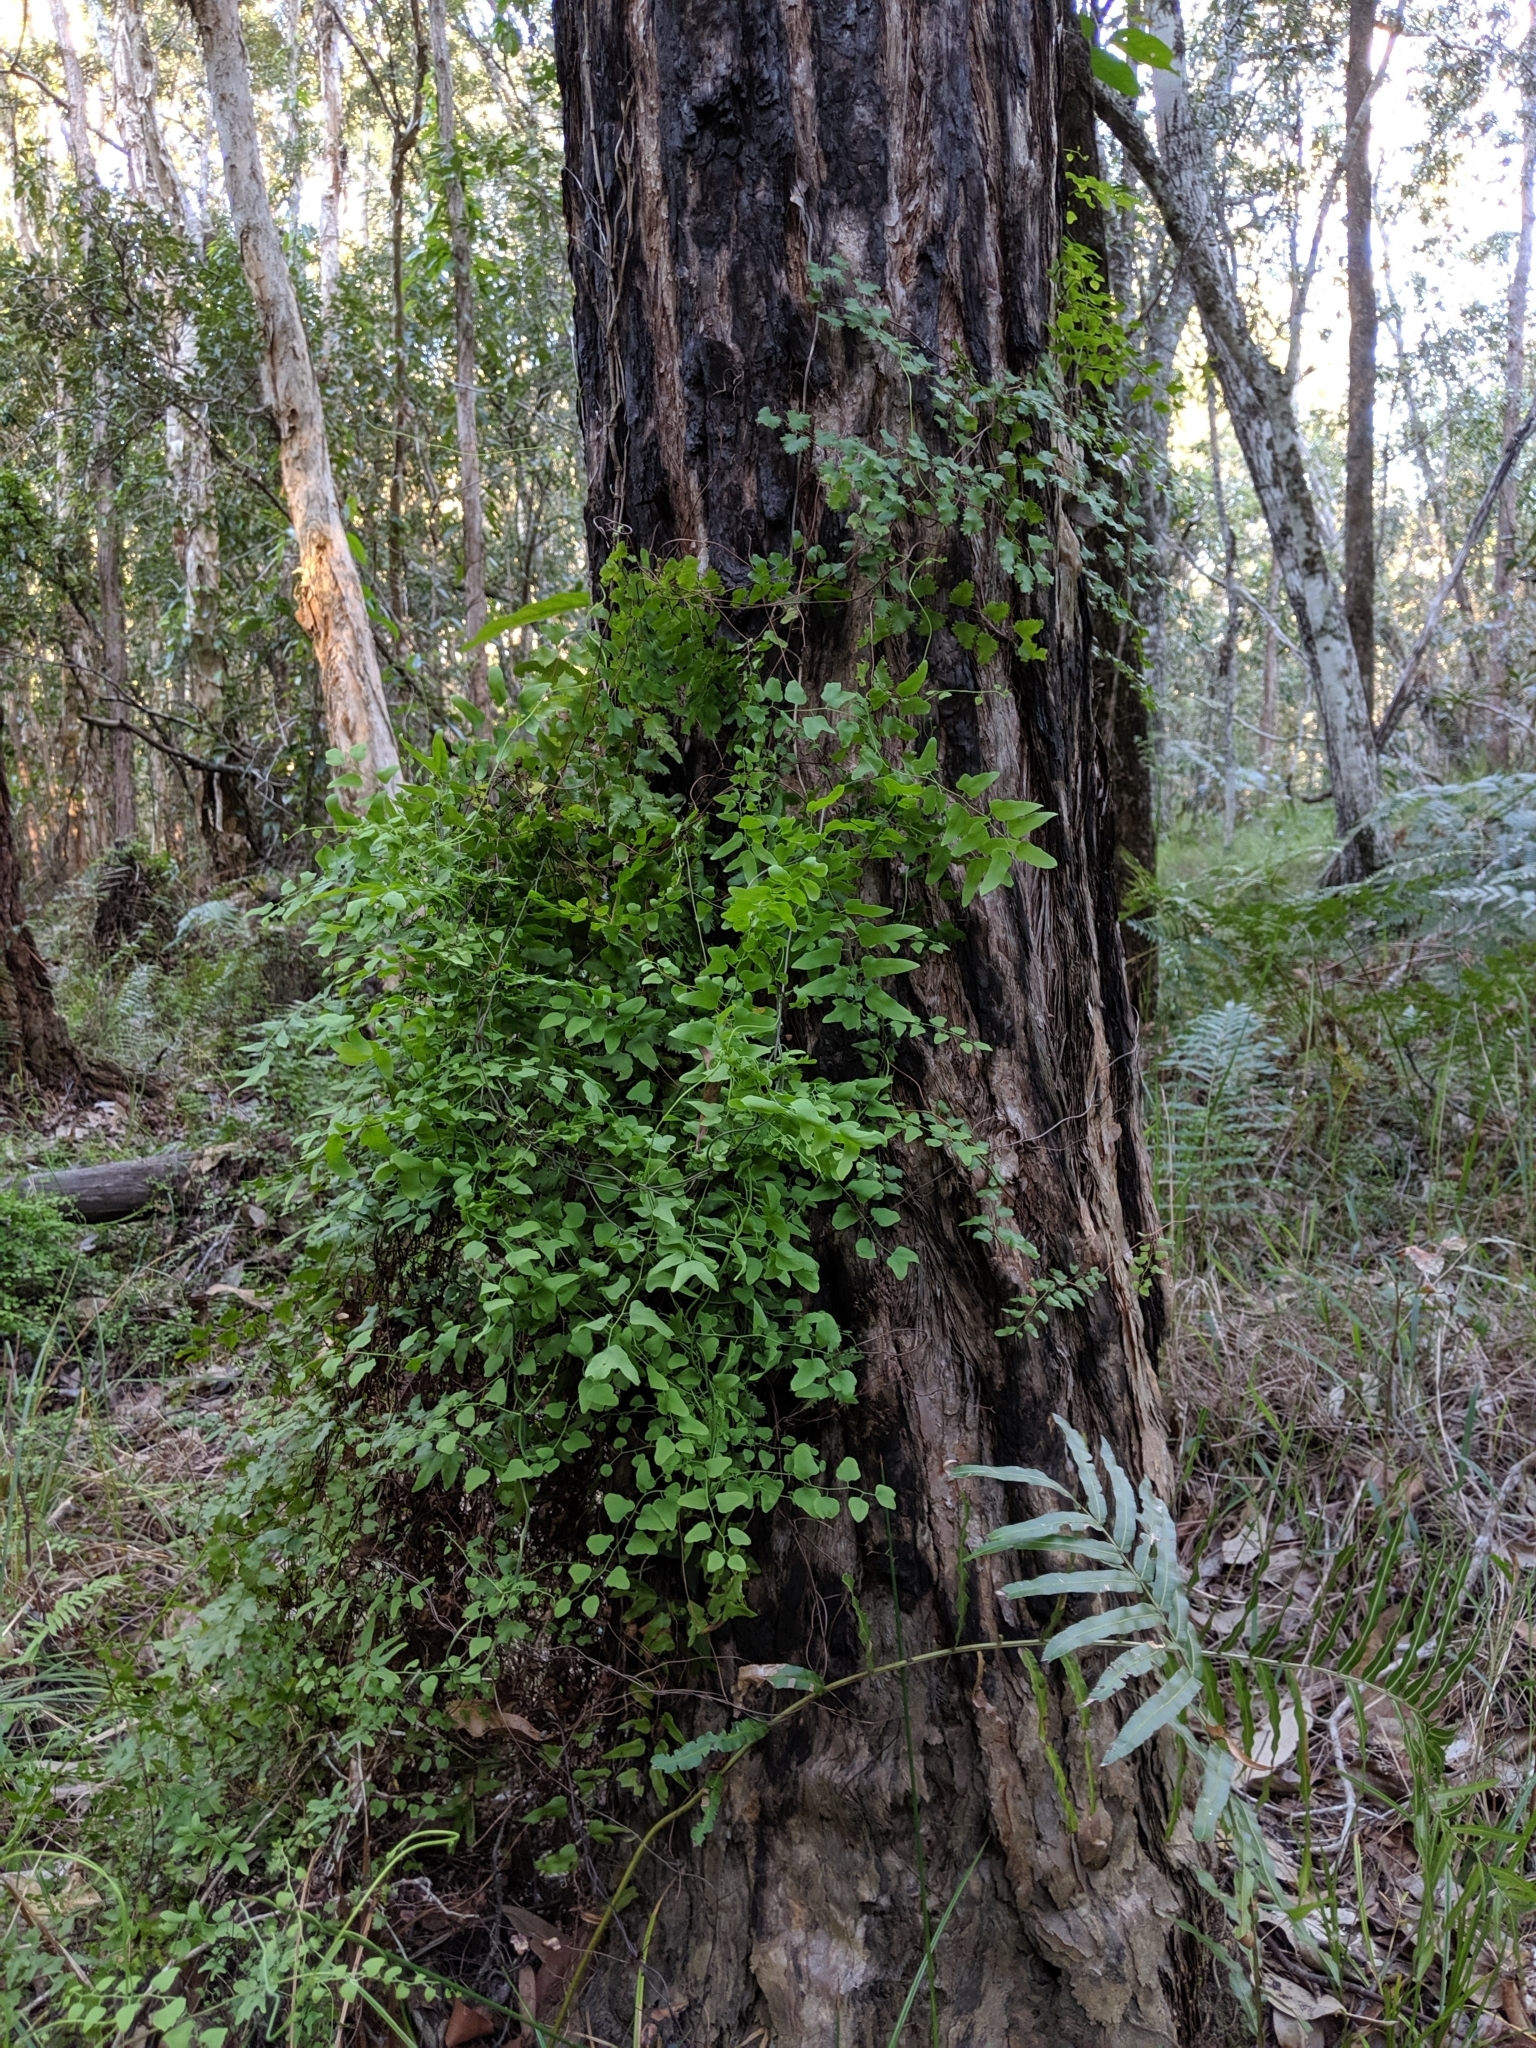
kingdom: Plantae
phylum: Tracheophyta
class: Polypodiopsida
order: Schizaeales
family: Lygodiaceae
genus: Lygodium
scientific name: Lygodium microphyllum
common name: Small-leaf climbing fern
